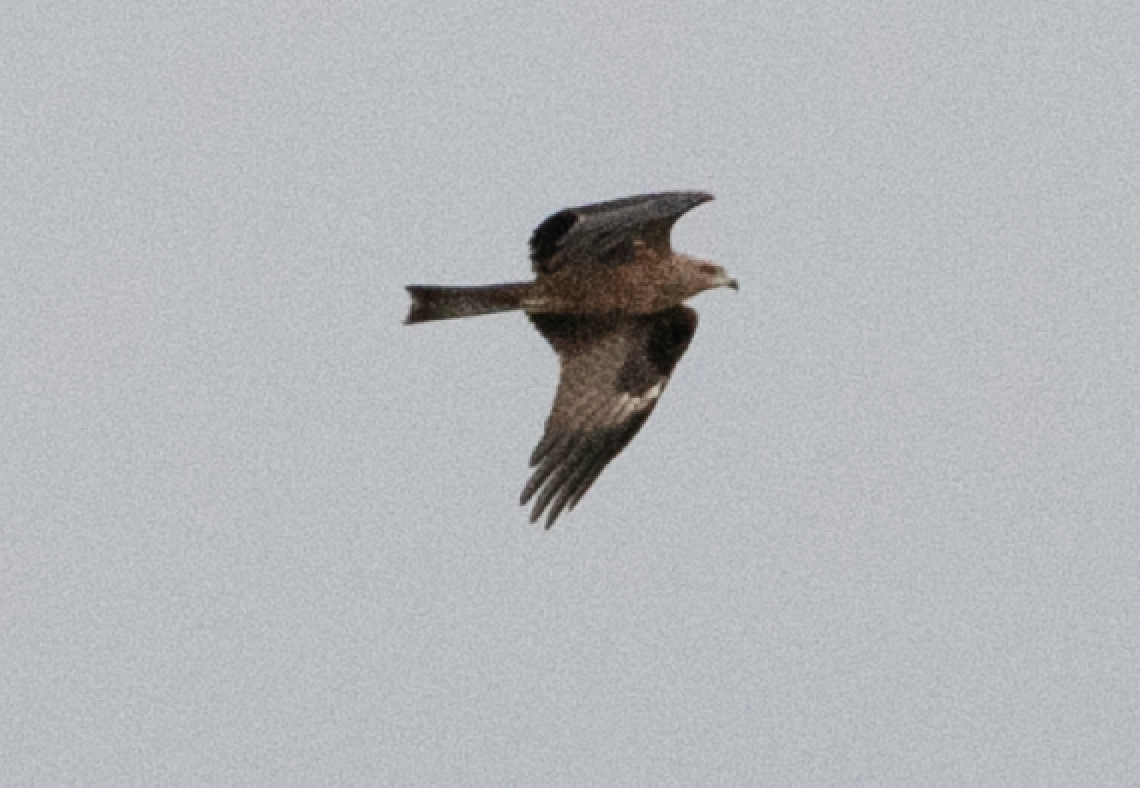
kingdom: Animalia
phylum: Chordata
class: Aves
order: Accipitriformes
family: Accipitridae
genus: Milvus
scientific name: Milvus migrans
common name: Black kite
